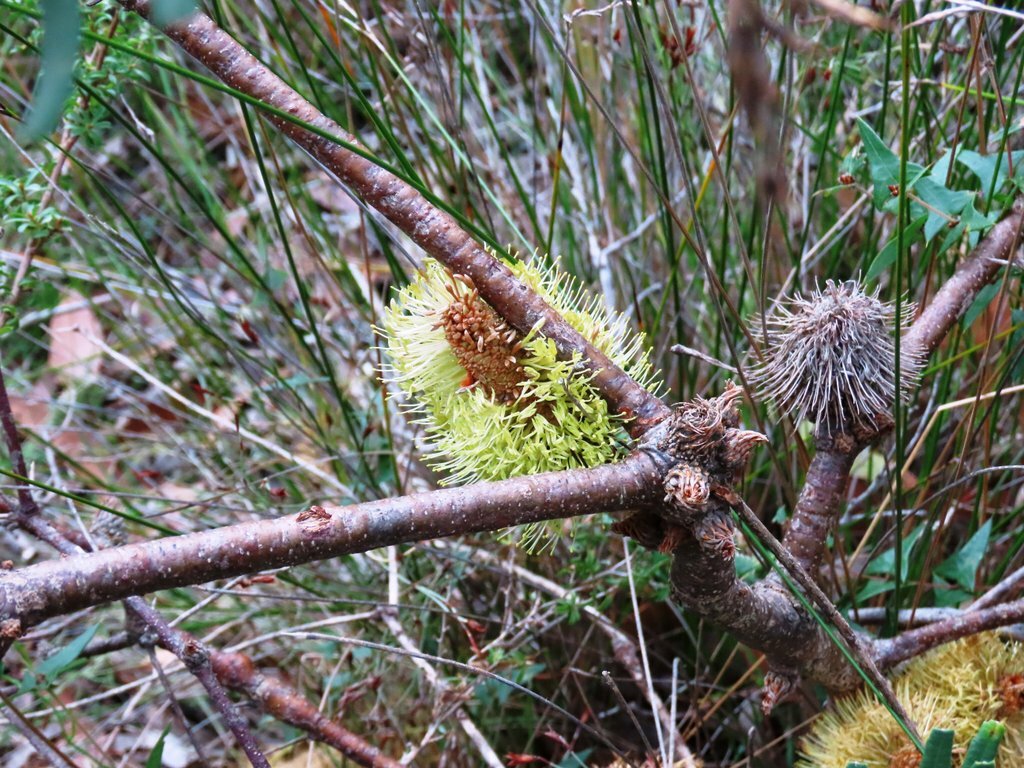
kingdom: Plantae
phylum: Tracheophyta
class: Magnoliopsida
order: Proteales
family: Proteaceae
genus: Banksia
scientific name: Banksia marginata
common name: Silver banksia
